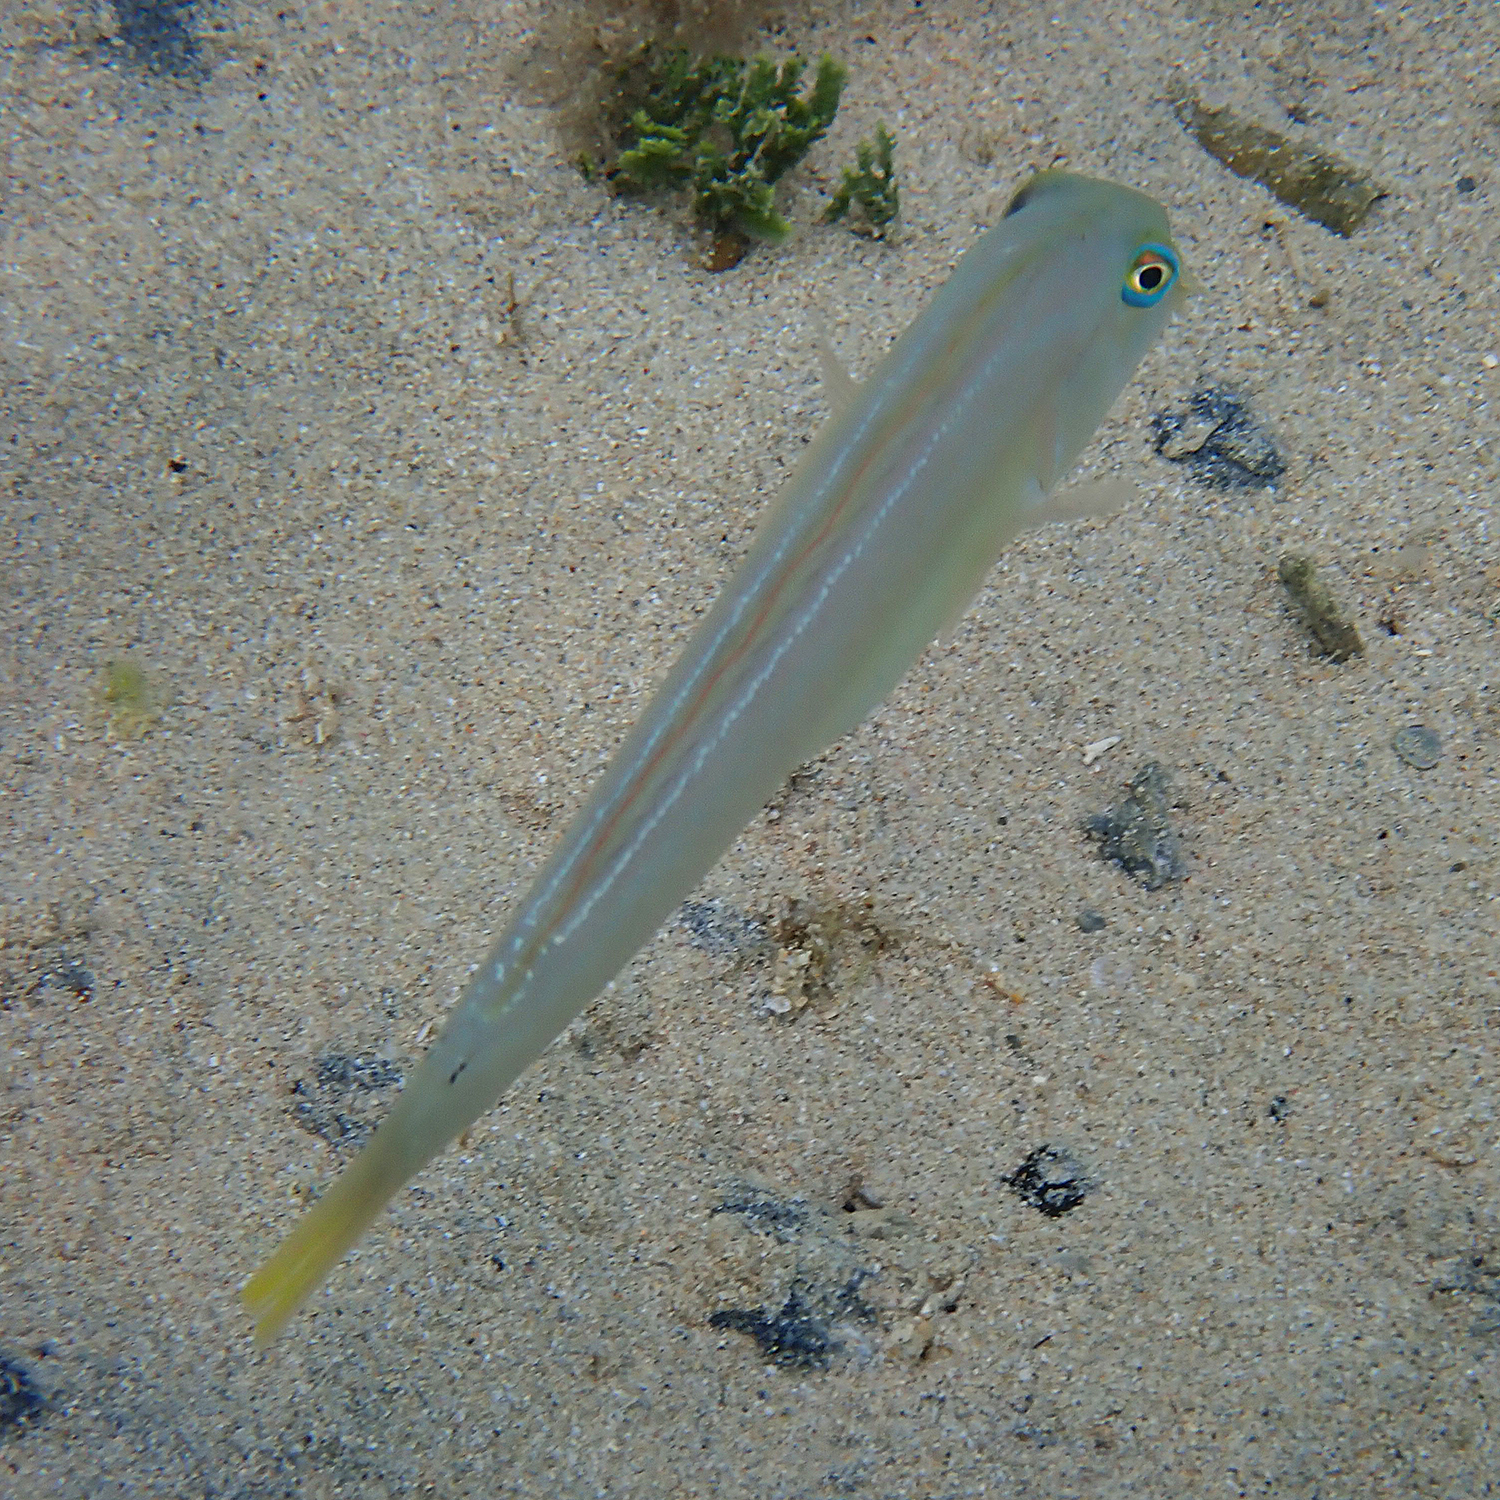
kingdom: Animalia
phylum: Chordata
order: Perciformes
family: Labridae
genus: Cymolutes
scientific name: Cymolutes praetextatus
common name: Knife razorfish
